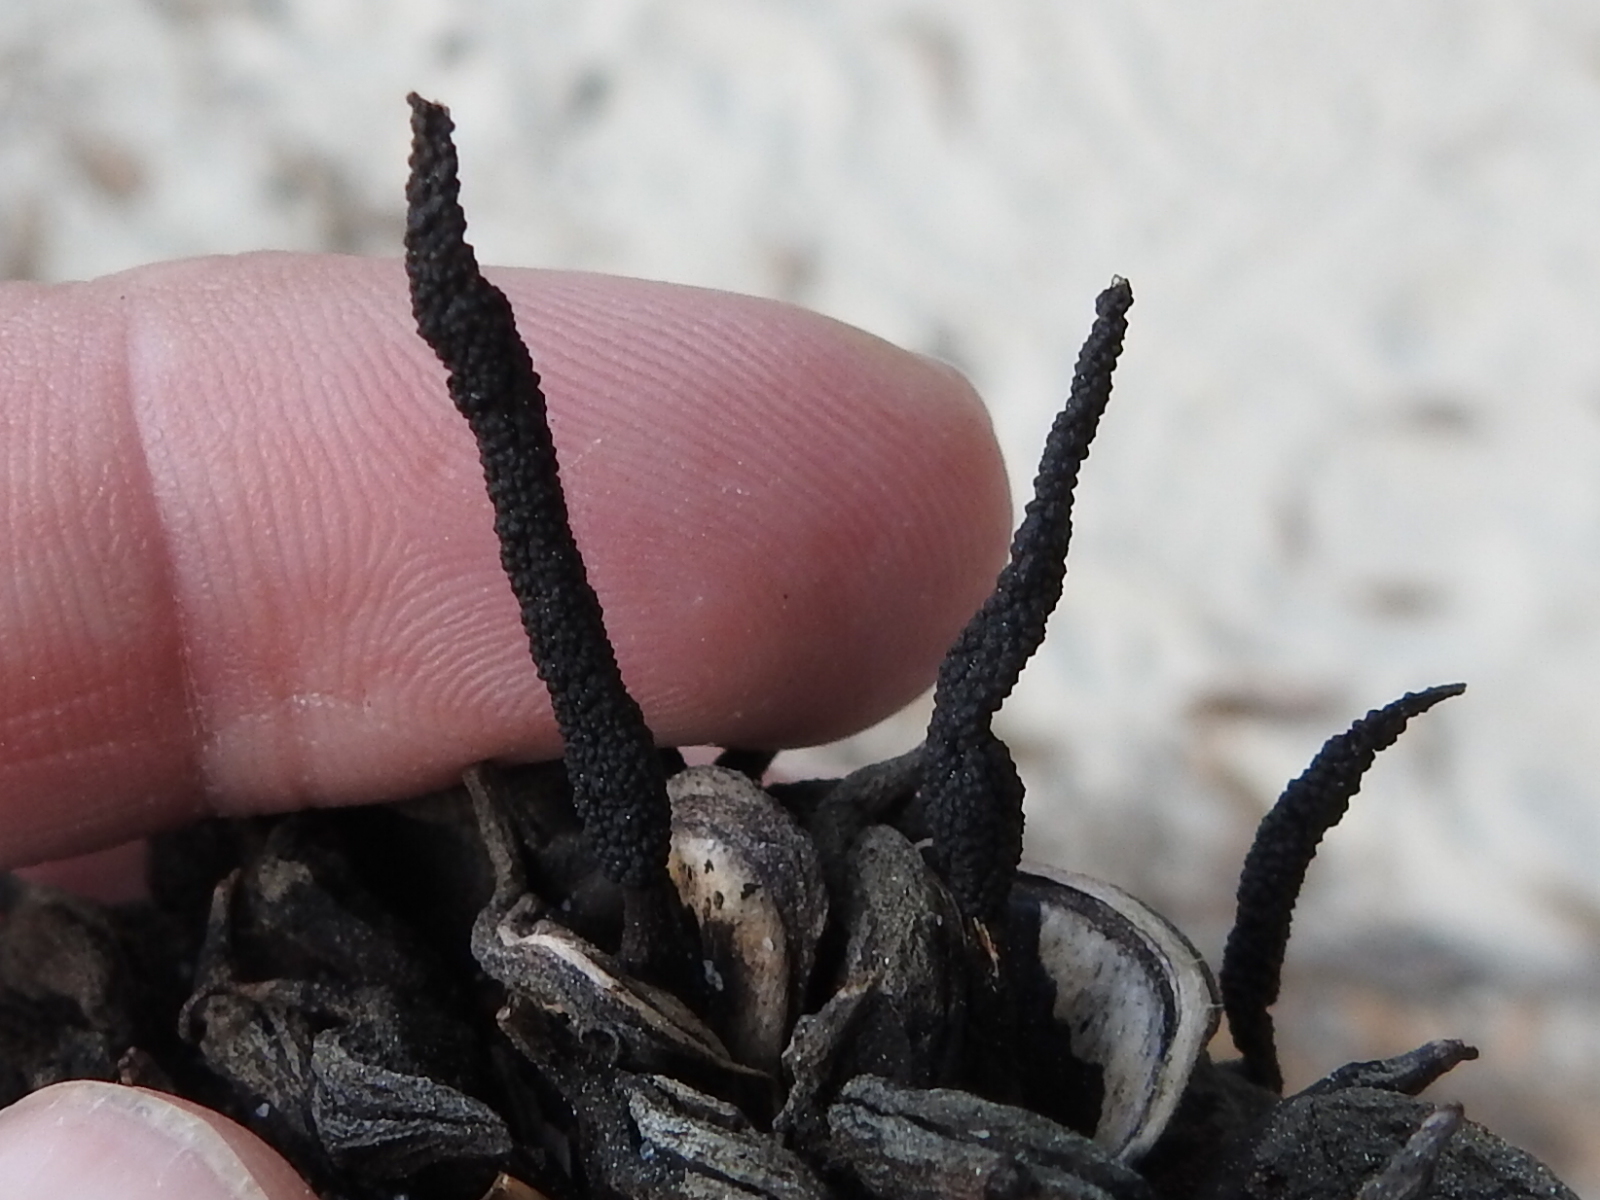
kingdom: Fungi
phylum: Ascomycota
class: Sordariomycetes
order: Xylariales
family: Xylariaceae
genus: Xylaria
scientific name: Xylaria magnoliae
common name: Magnolia-cone xylaria
